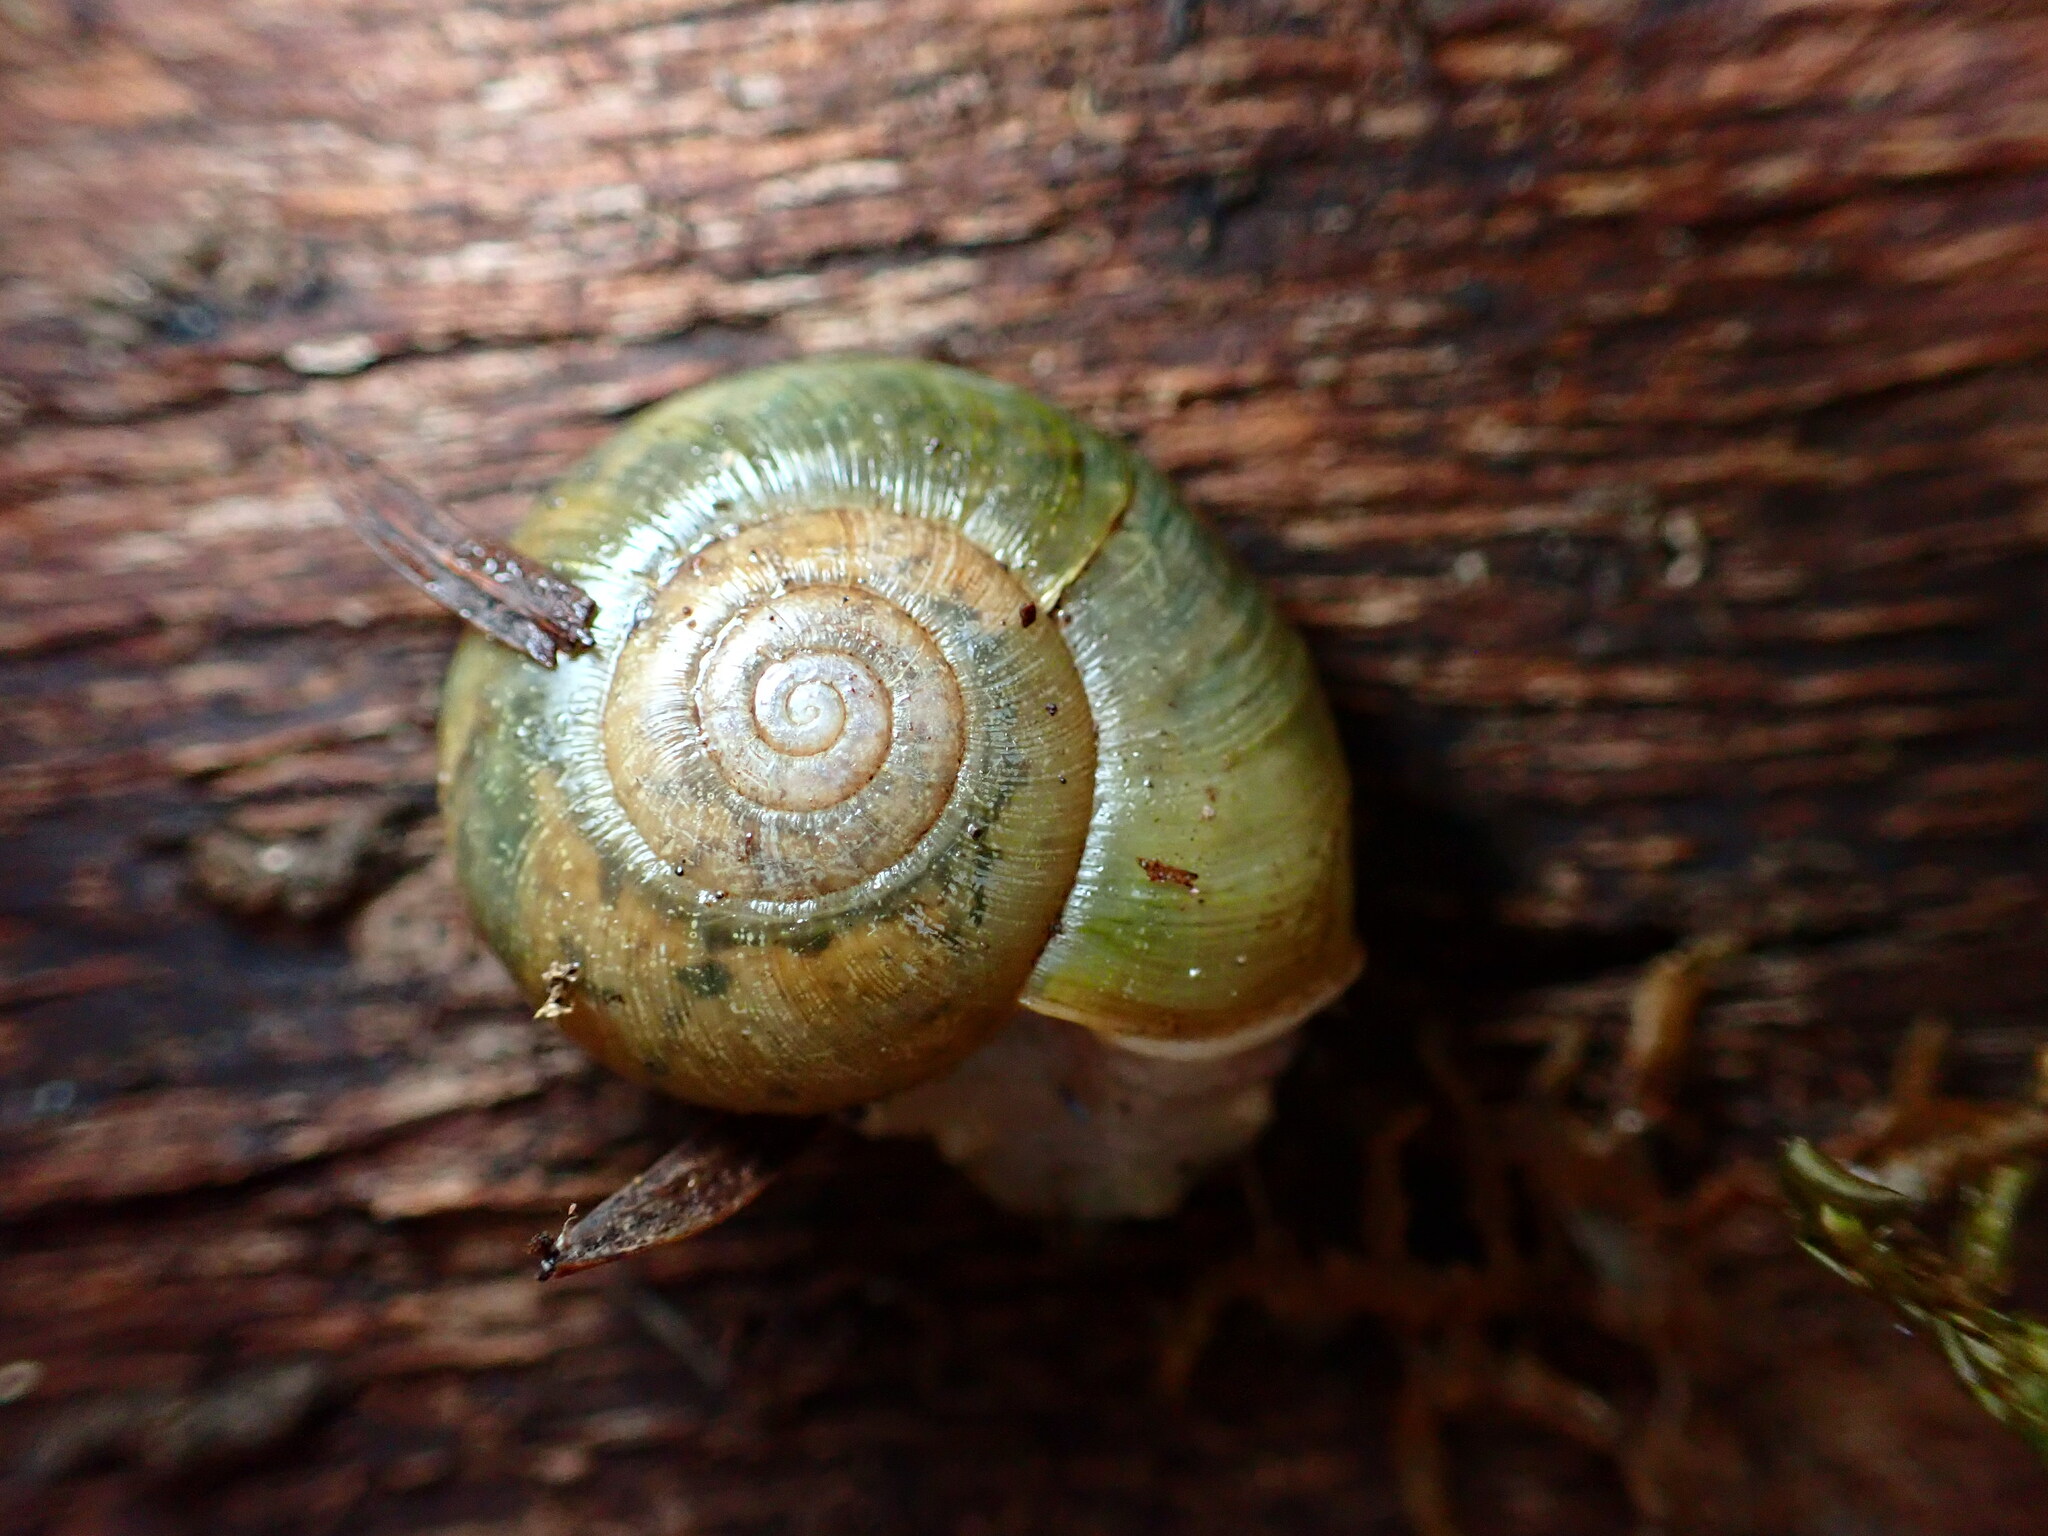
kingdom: Animalia
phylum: Mollusca
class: Gastropoda
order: Stylommatophora
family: Haplotrematidae
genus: Haplotrema
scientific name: Haplotrema minimum
